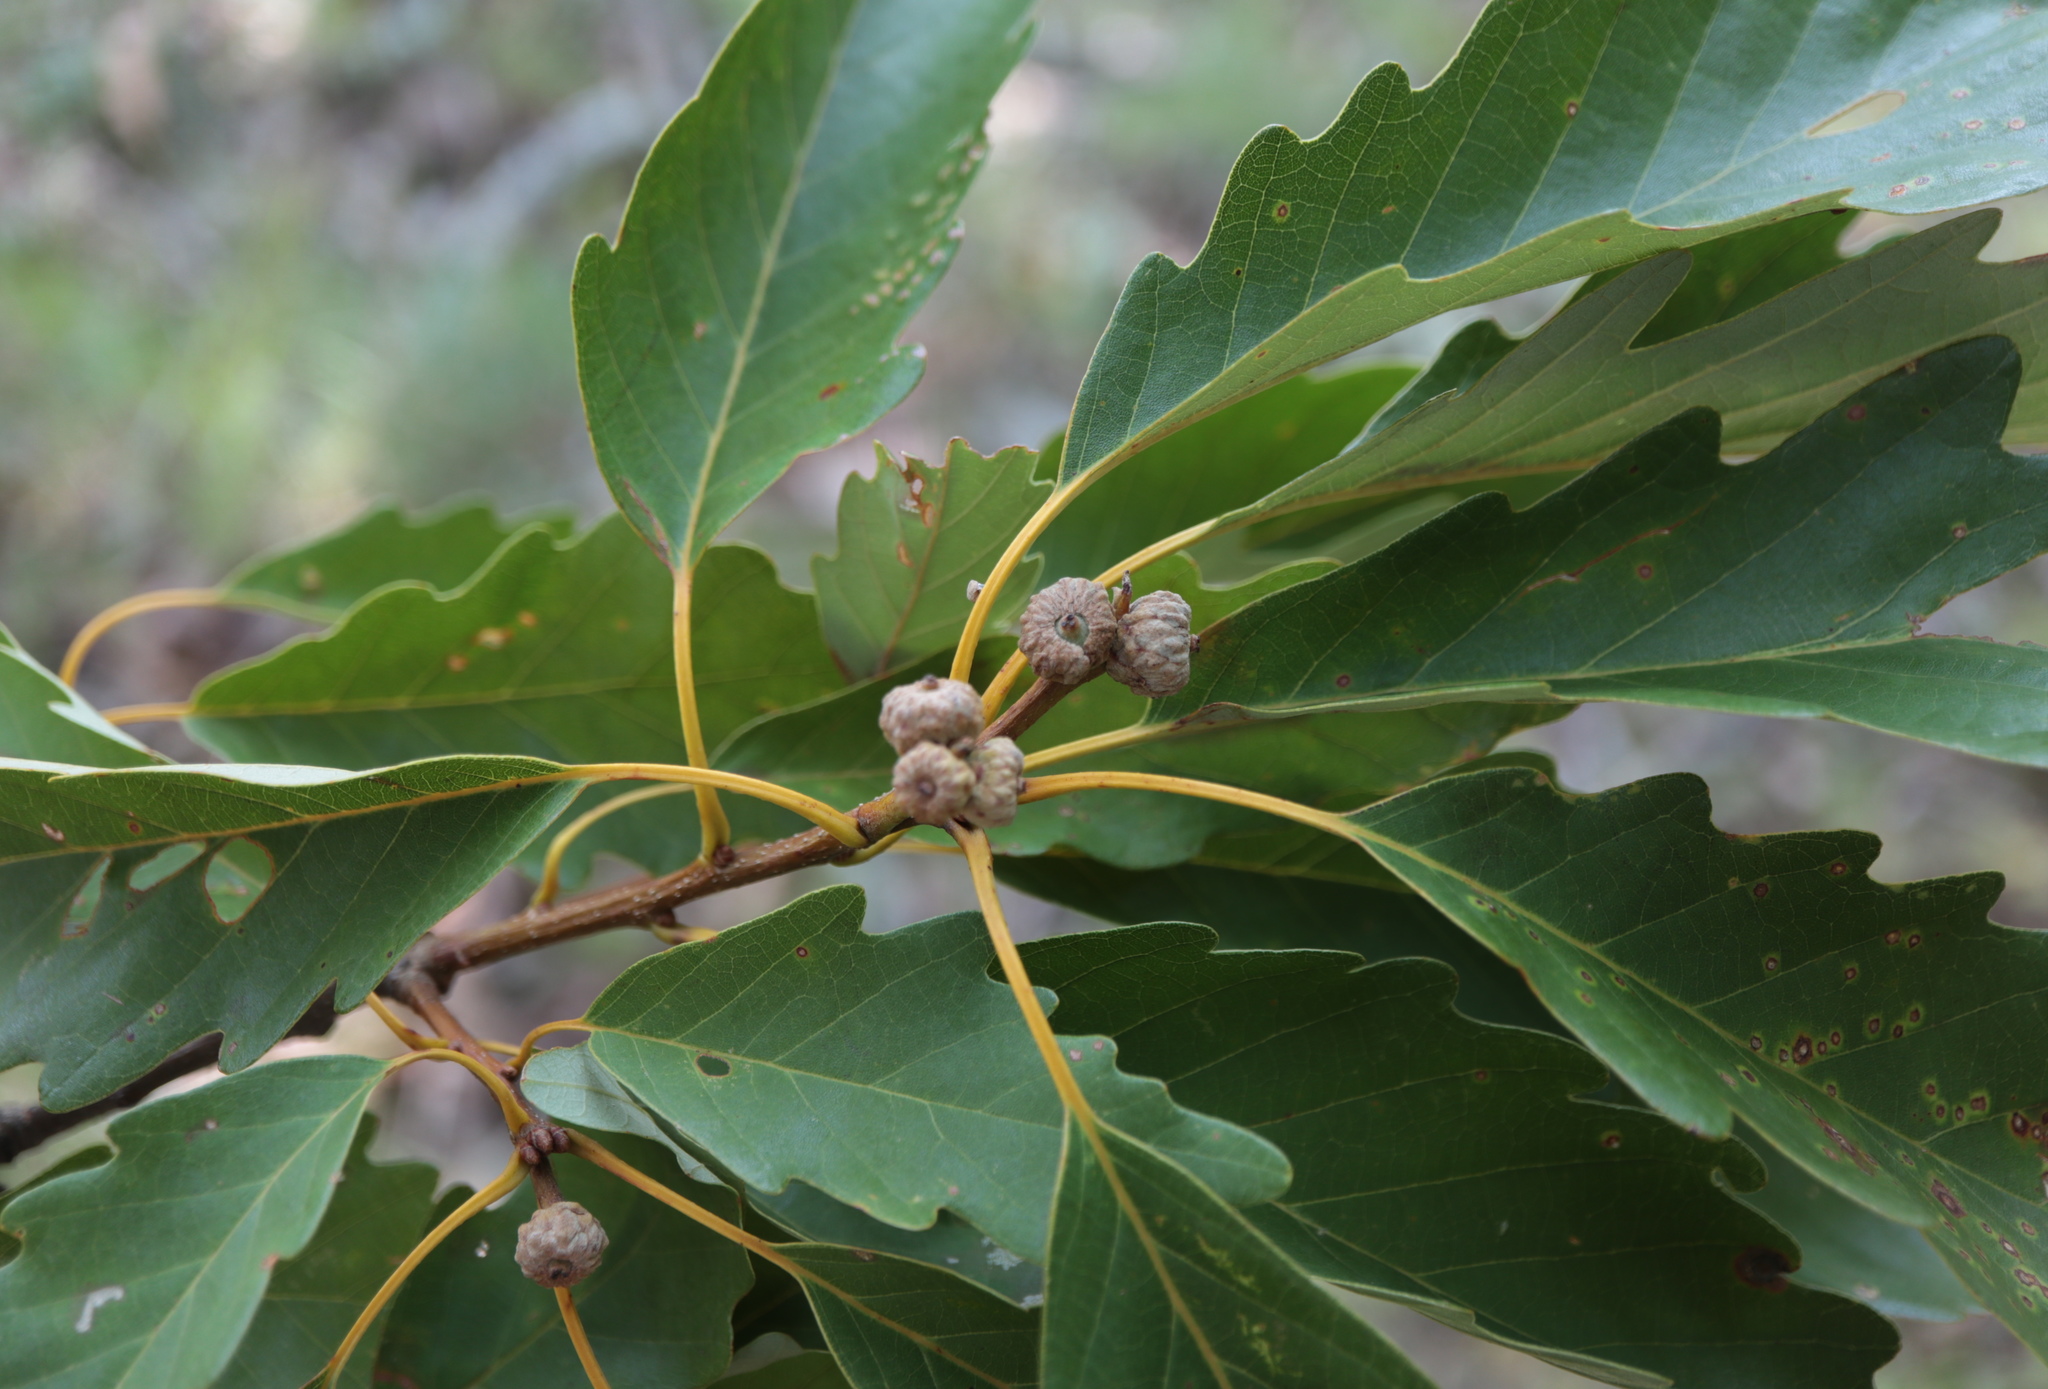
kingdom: Plantae
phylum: Tracheophyta
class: Magnoliopsida
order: Fagales
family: Fagaceae
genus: Quercus
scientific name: Quercus montana
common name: Chestnut oak
